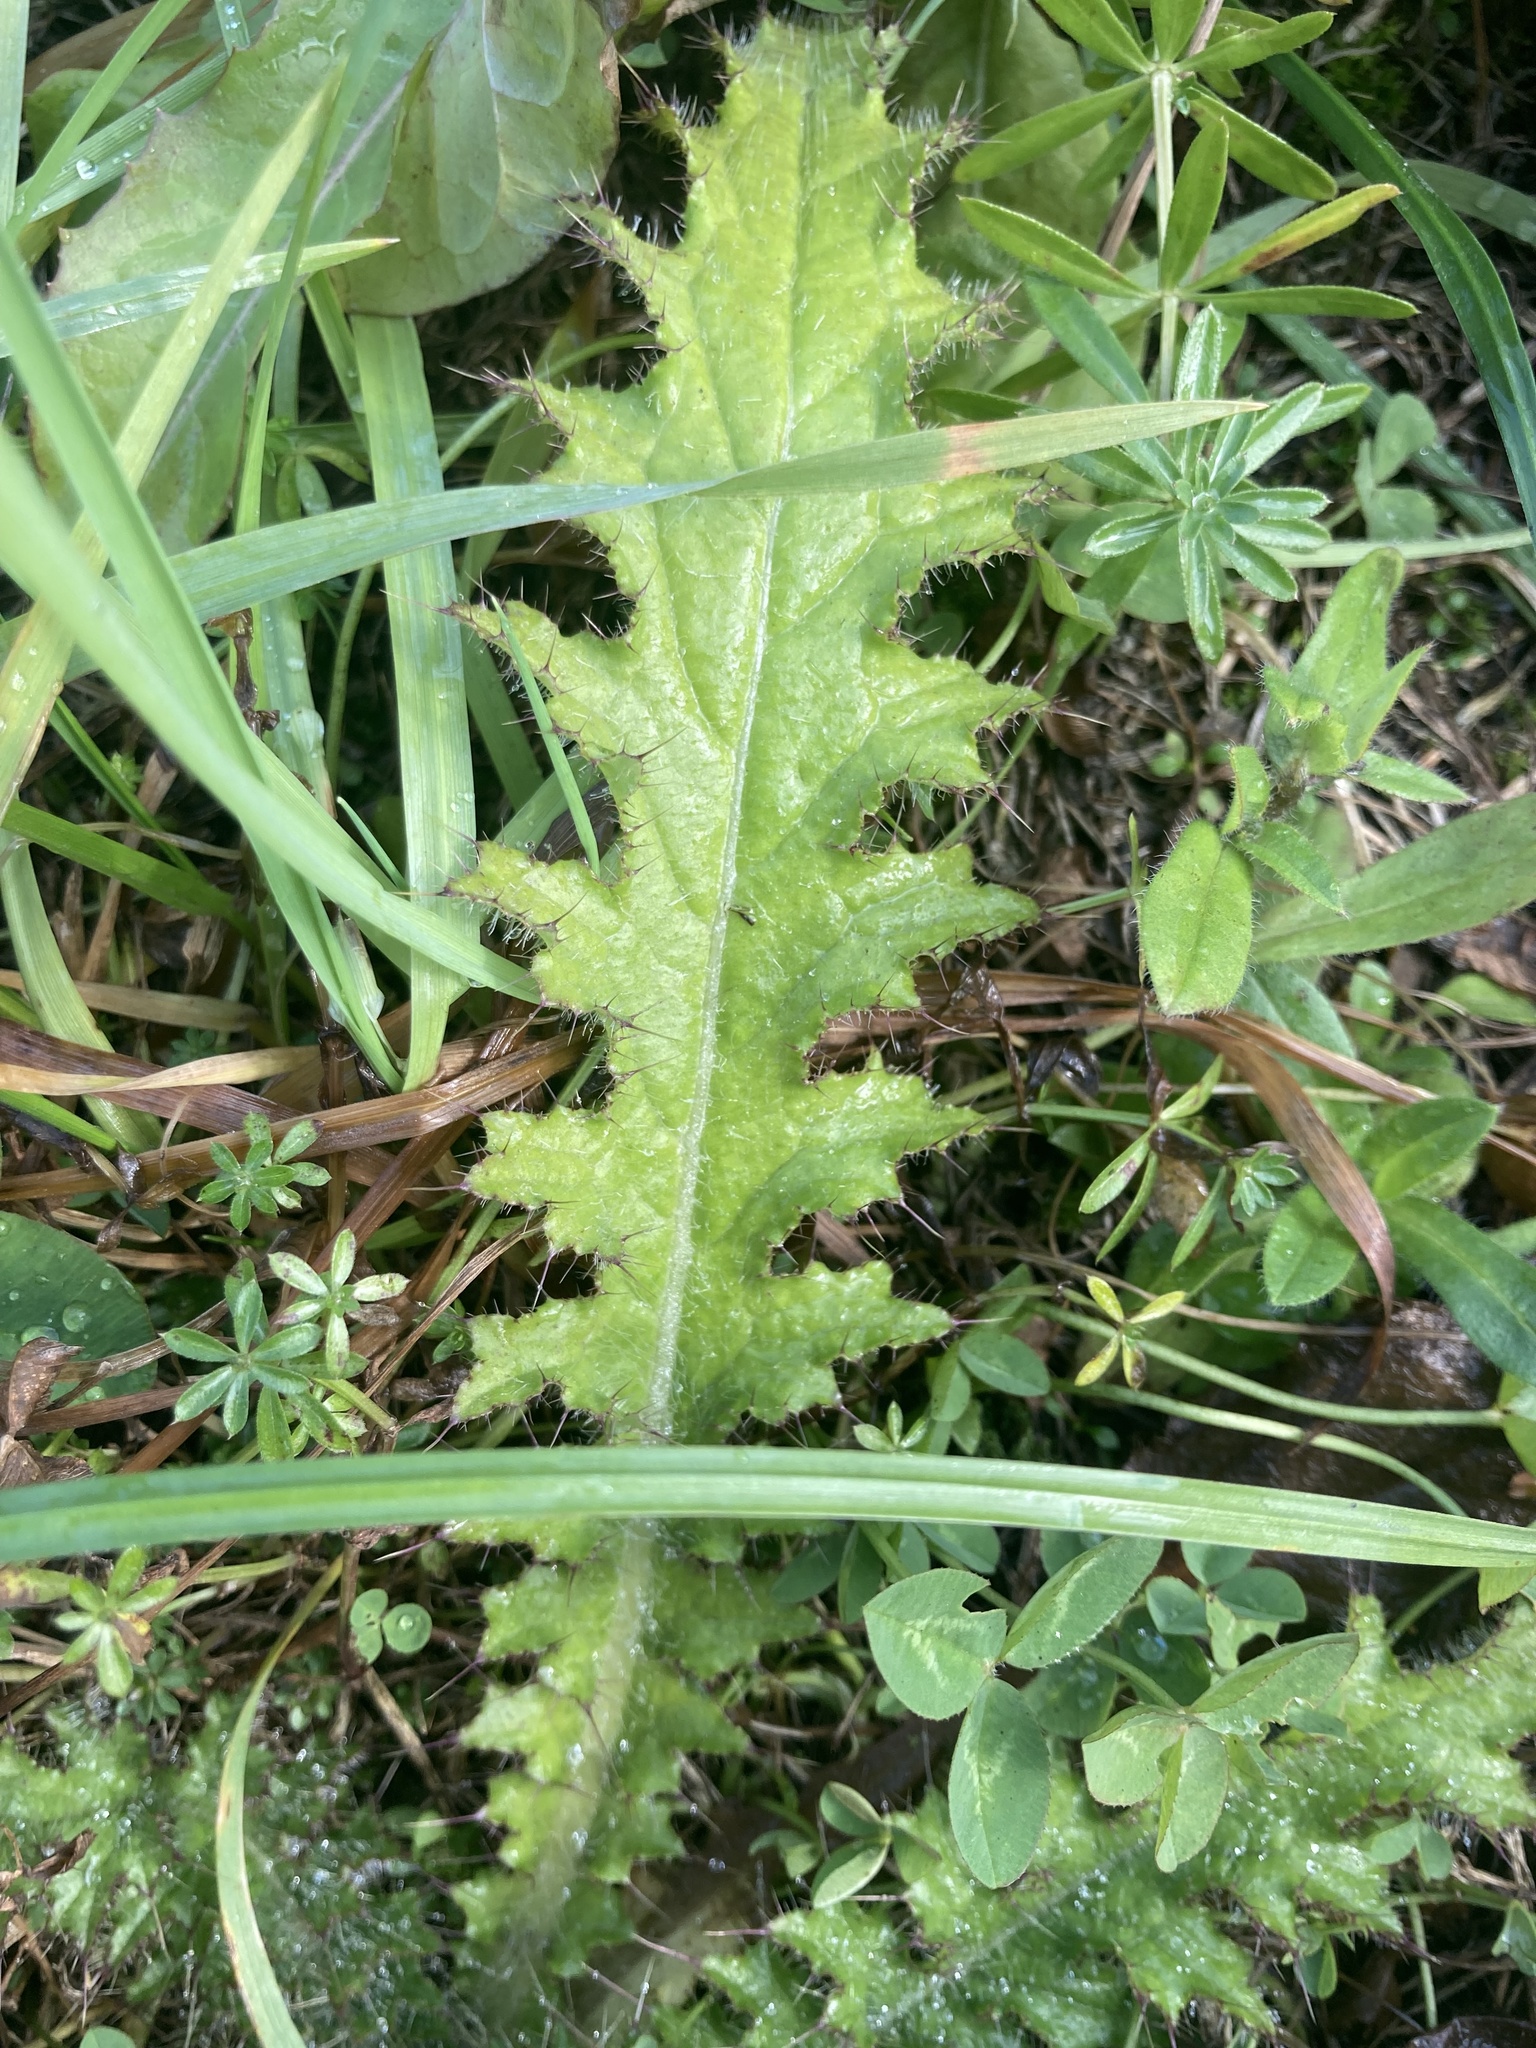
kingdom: Plantae
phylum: Tracheophyta
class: Magnoliopsida
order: Asterales
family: Asteraceae
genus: Cirsium
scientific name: Cirsium palustre
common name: Marsh thistle
